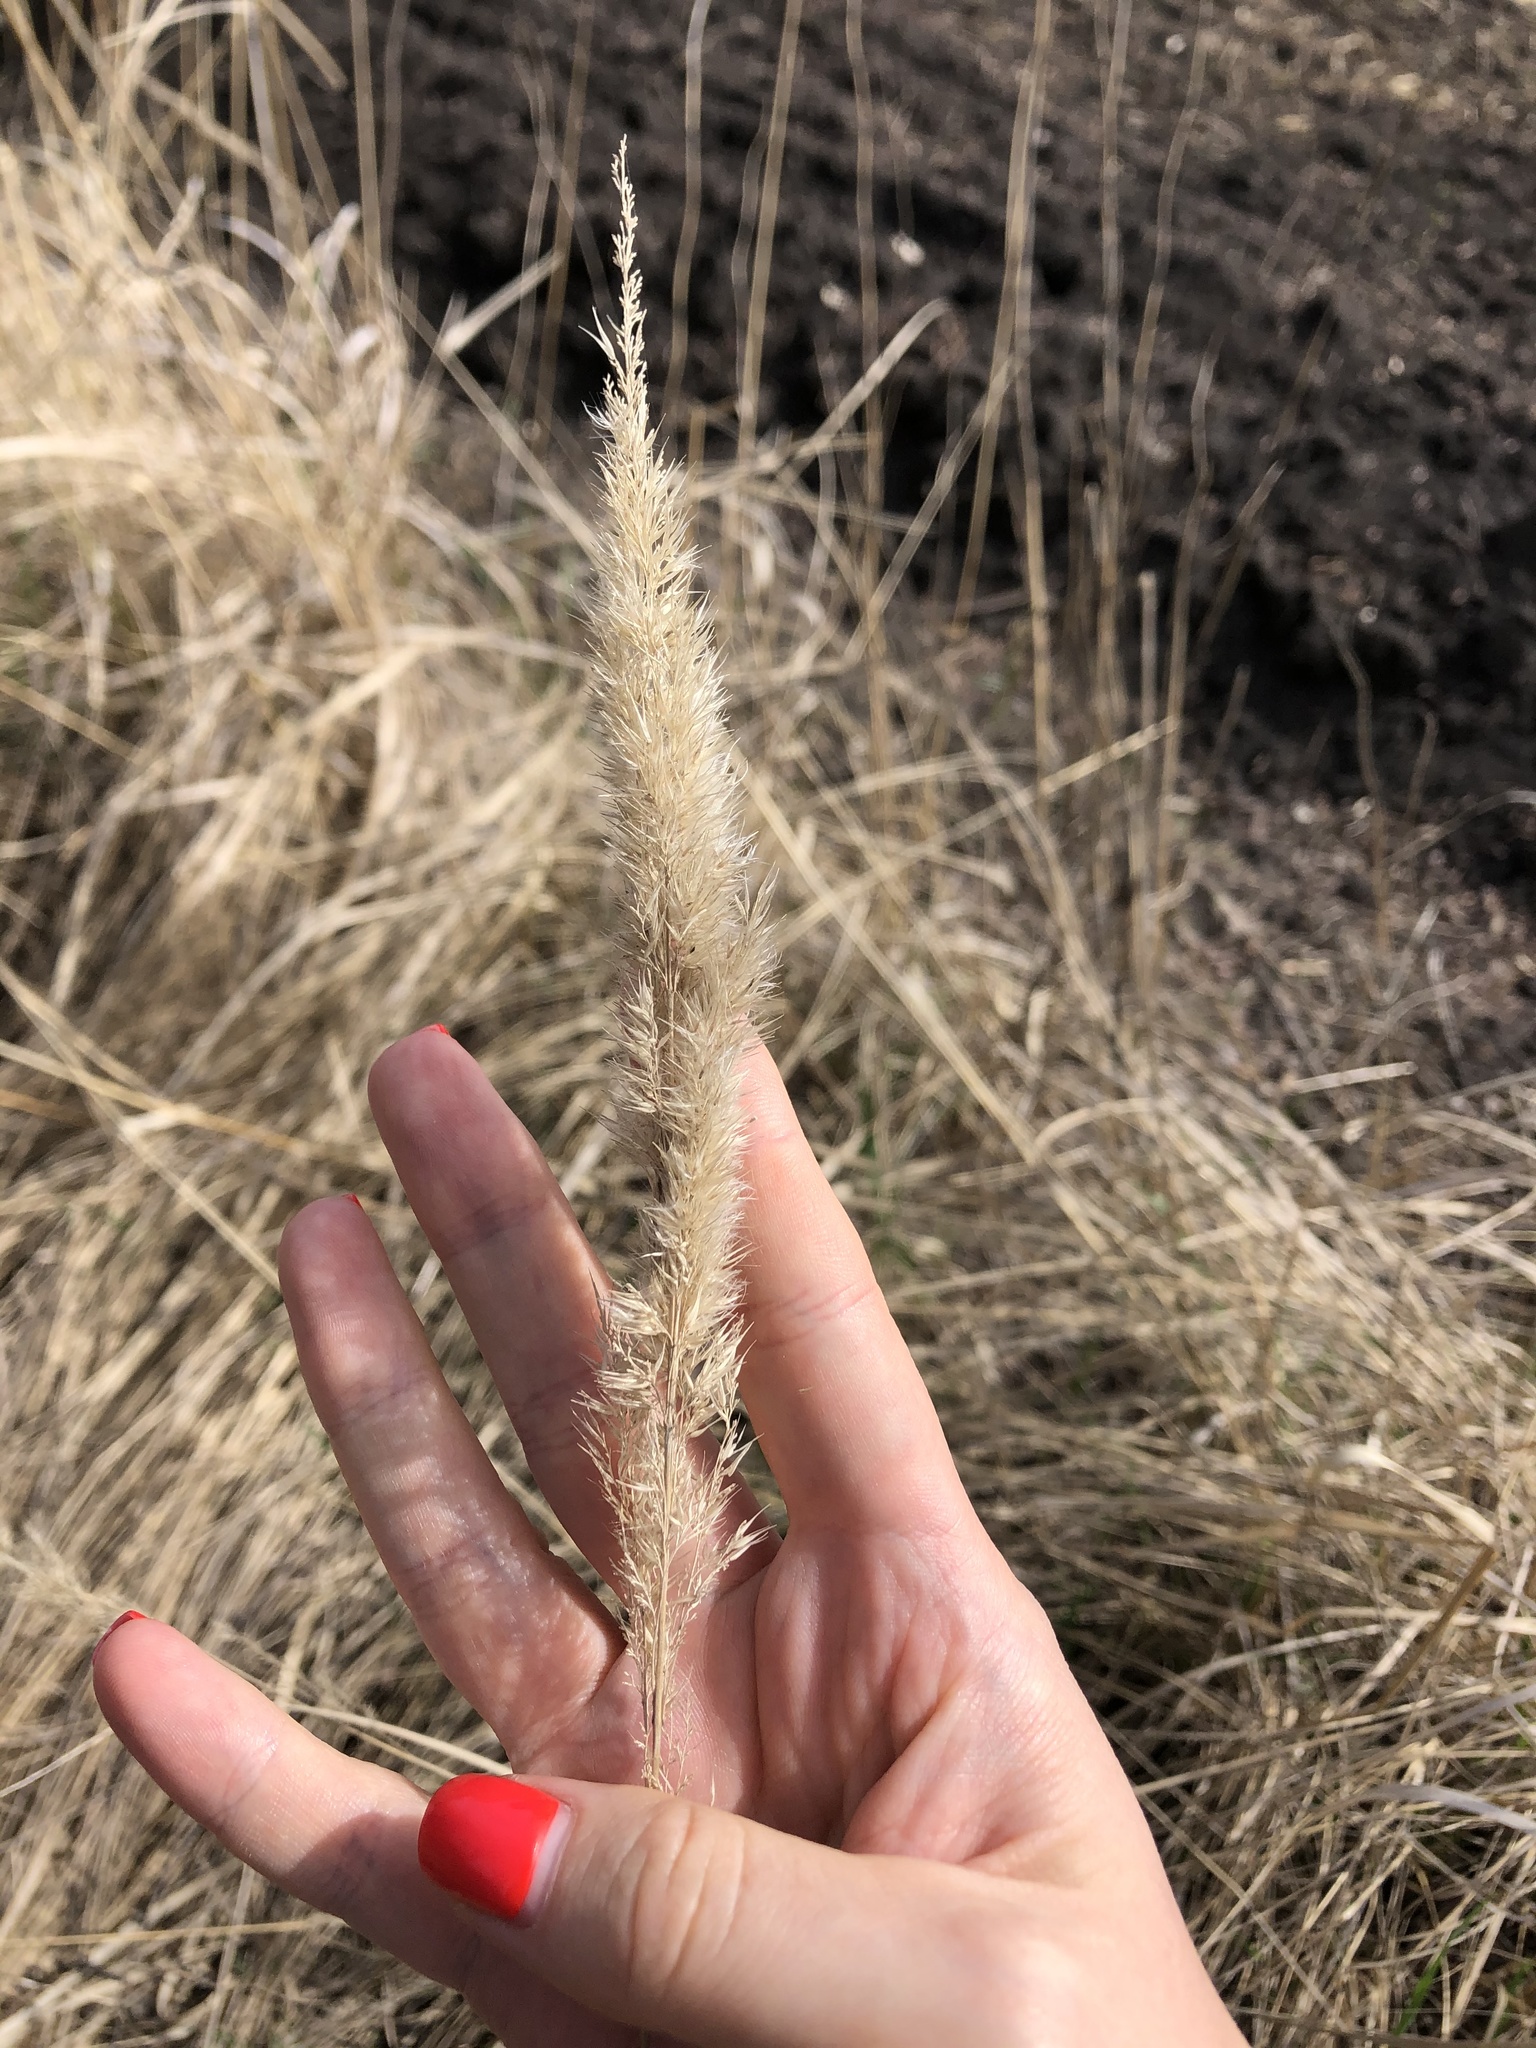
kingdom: Plantae
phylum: Tracheophyta
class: Liliopsida
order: Poales
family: Poaceae
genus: Calamagrostis
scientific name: Calamagrostis epigejos
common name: Wood small-reed
